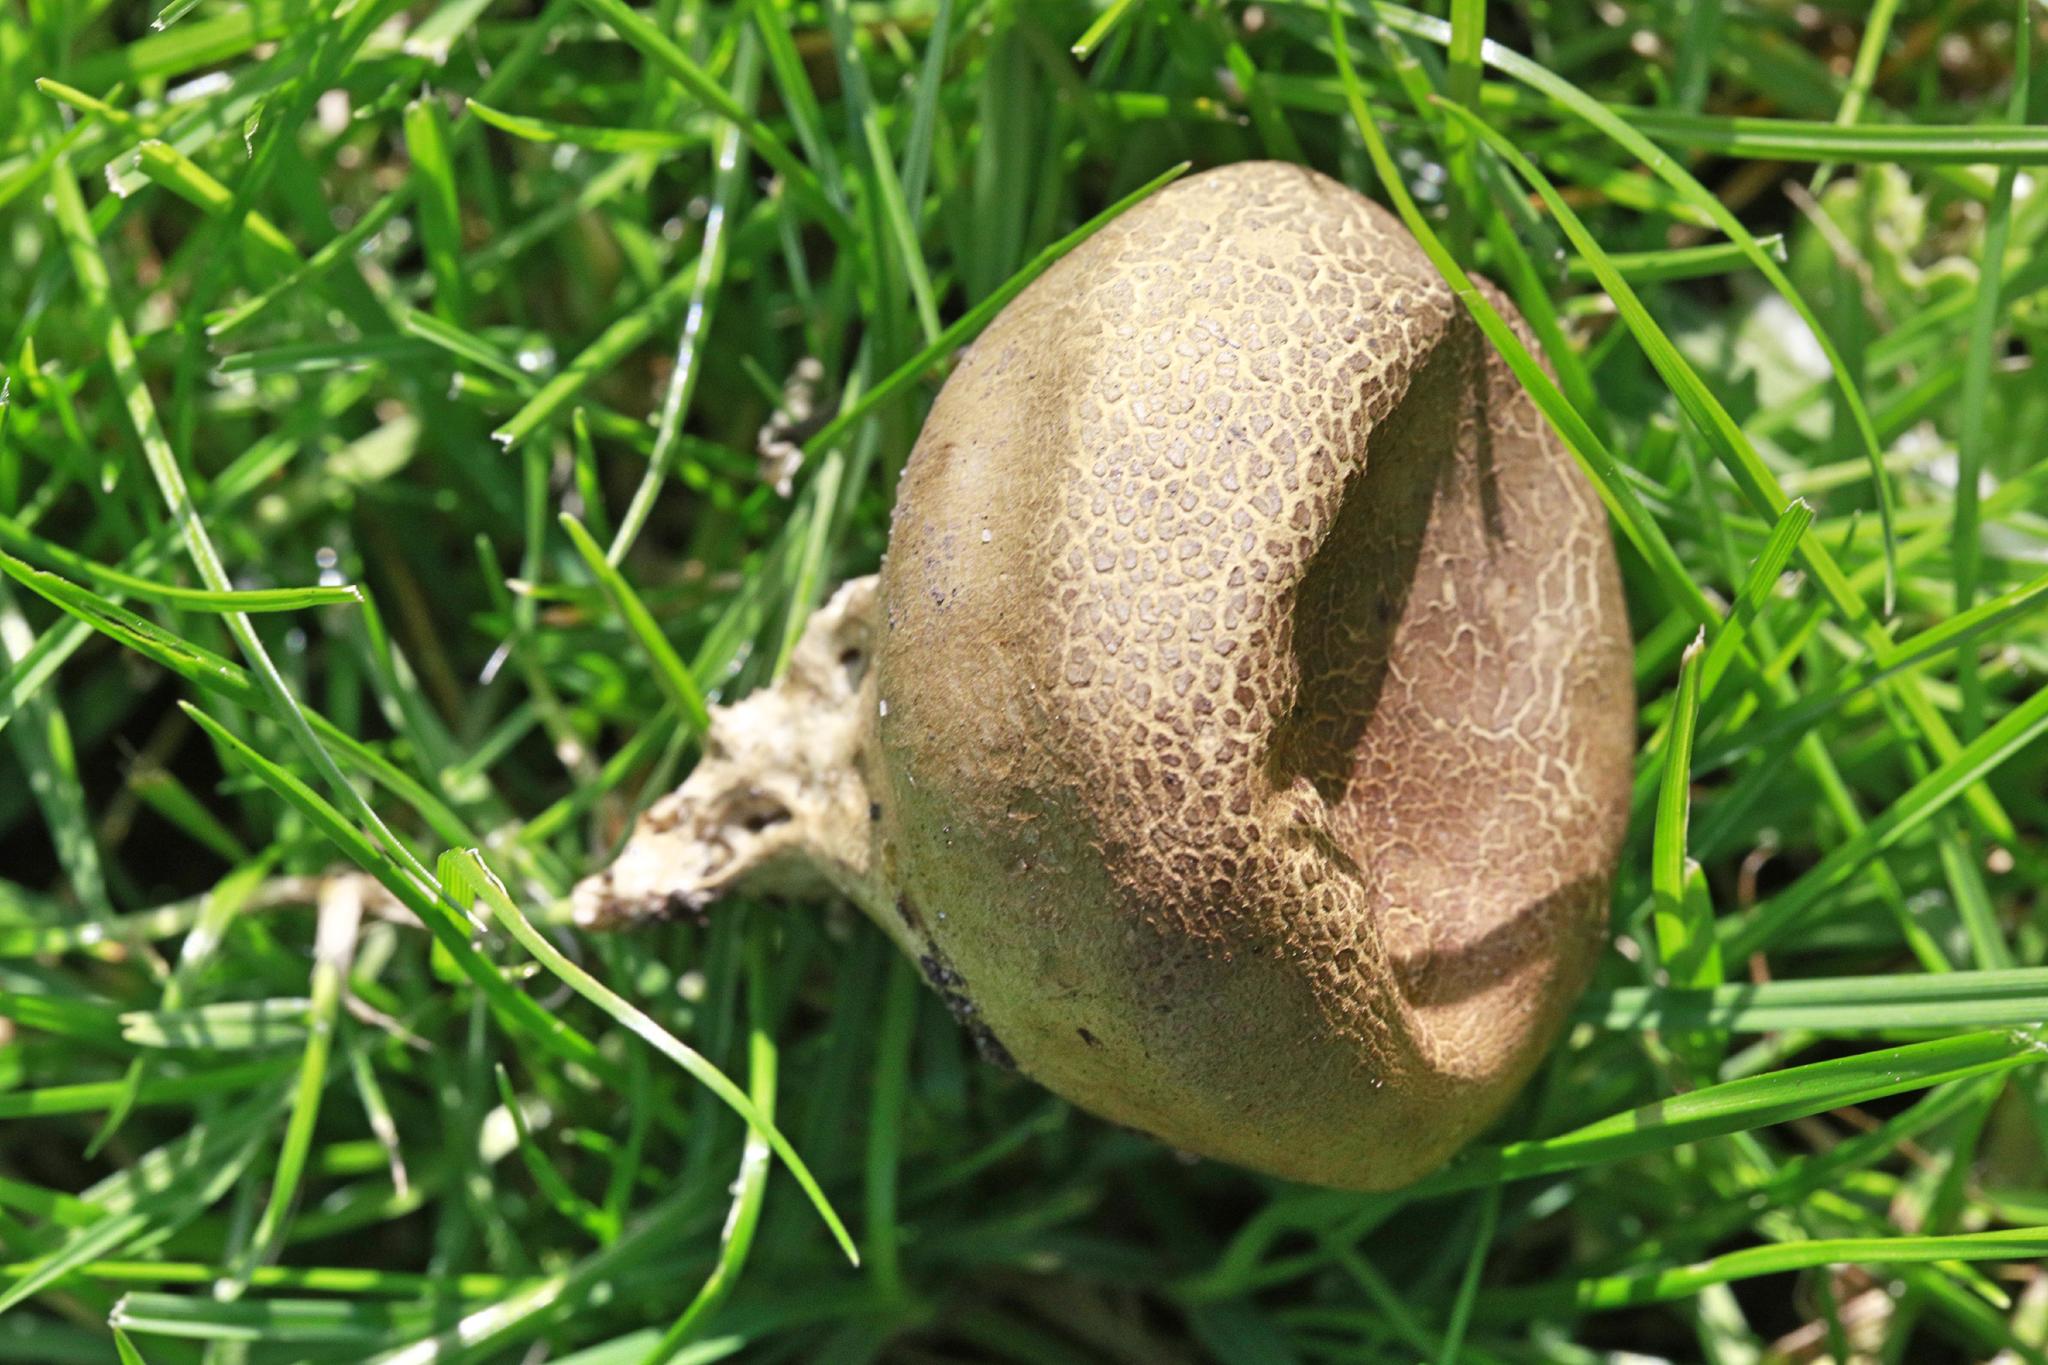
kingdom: Fungi
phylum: Basidiomycota
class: Agaricomycetes
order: Boletales
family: Sclerodermataceae
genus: Scleroderma
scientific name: Scleroderma citrinum
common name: Common earthball
